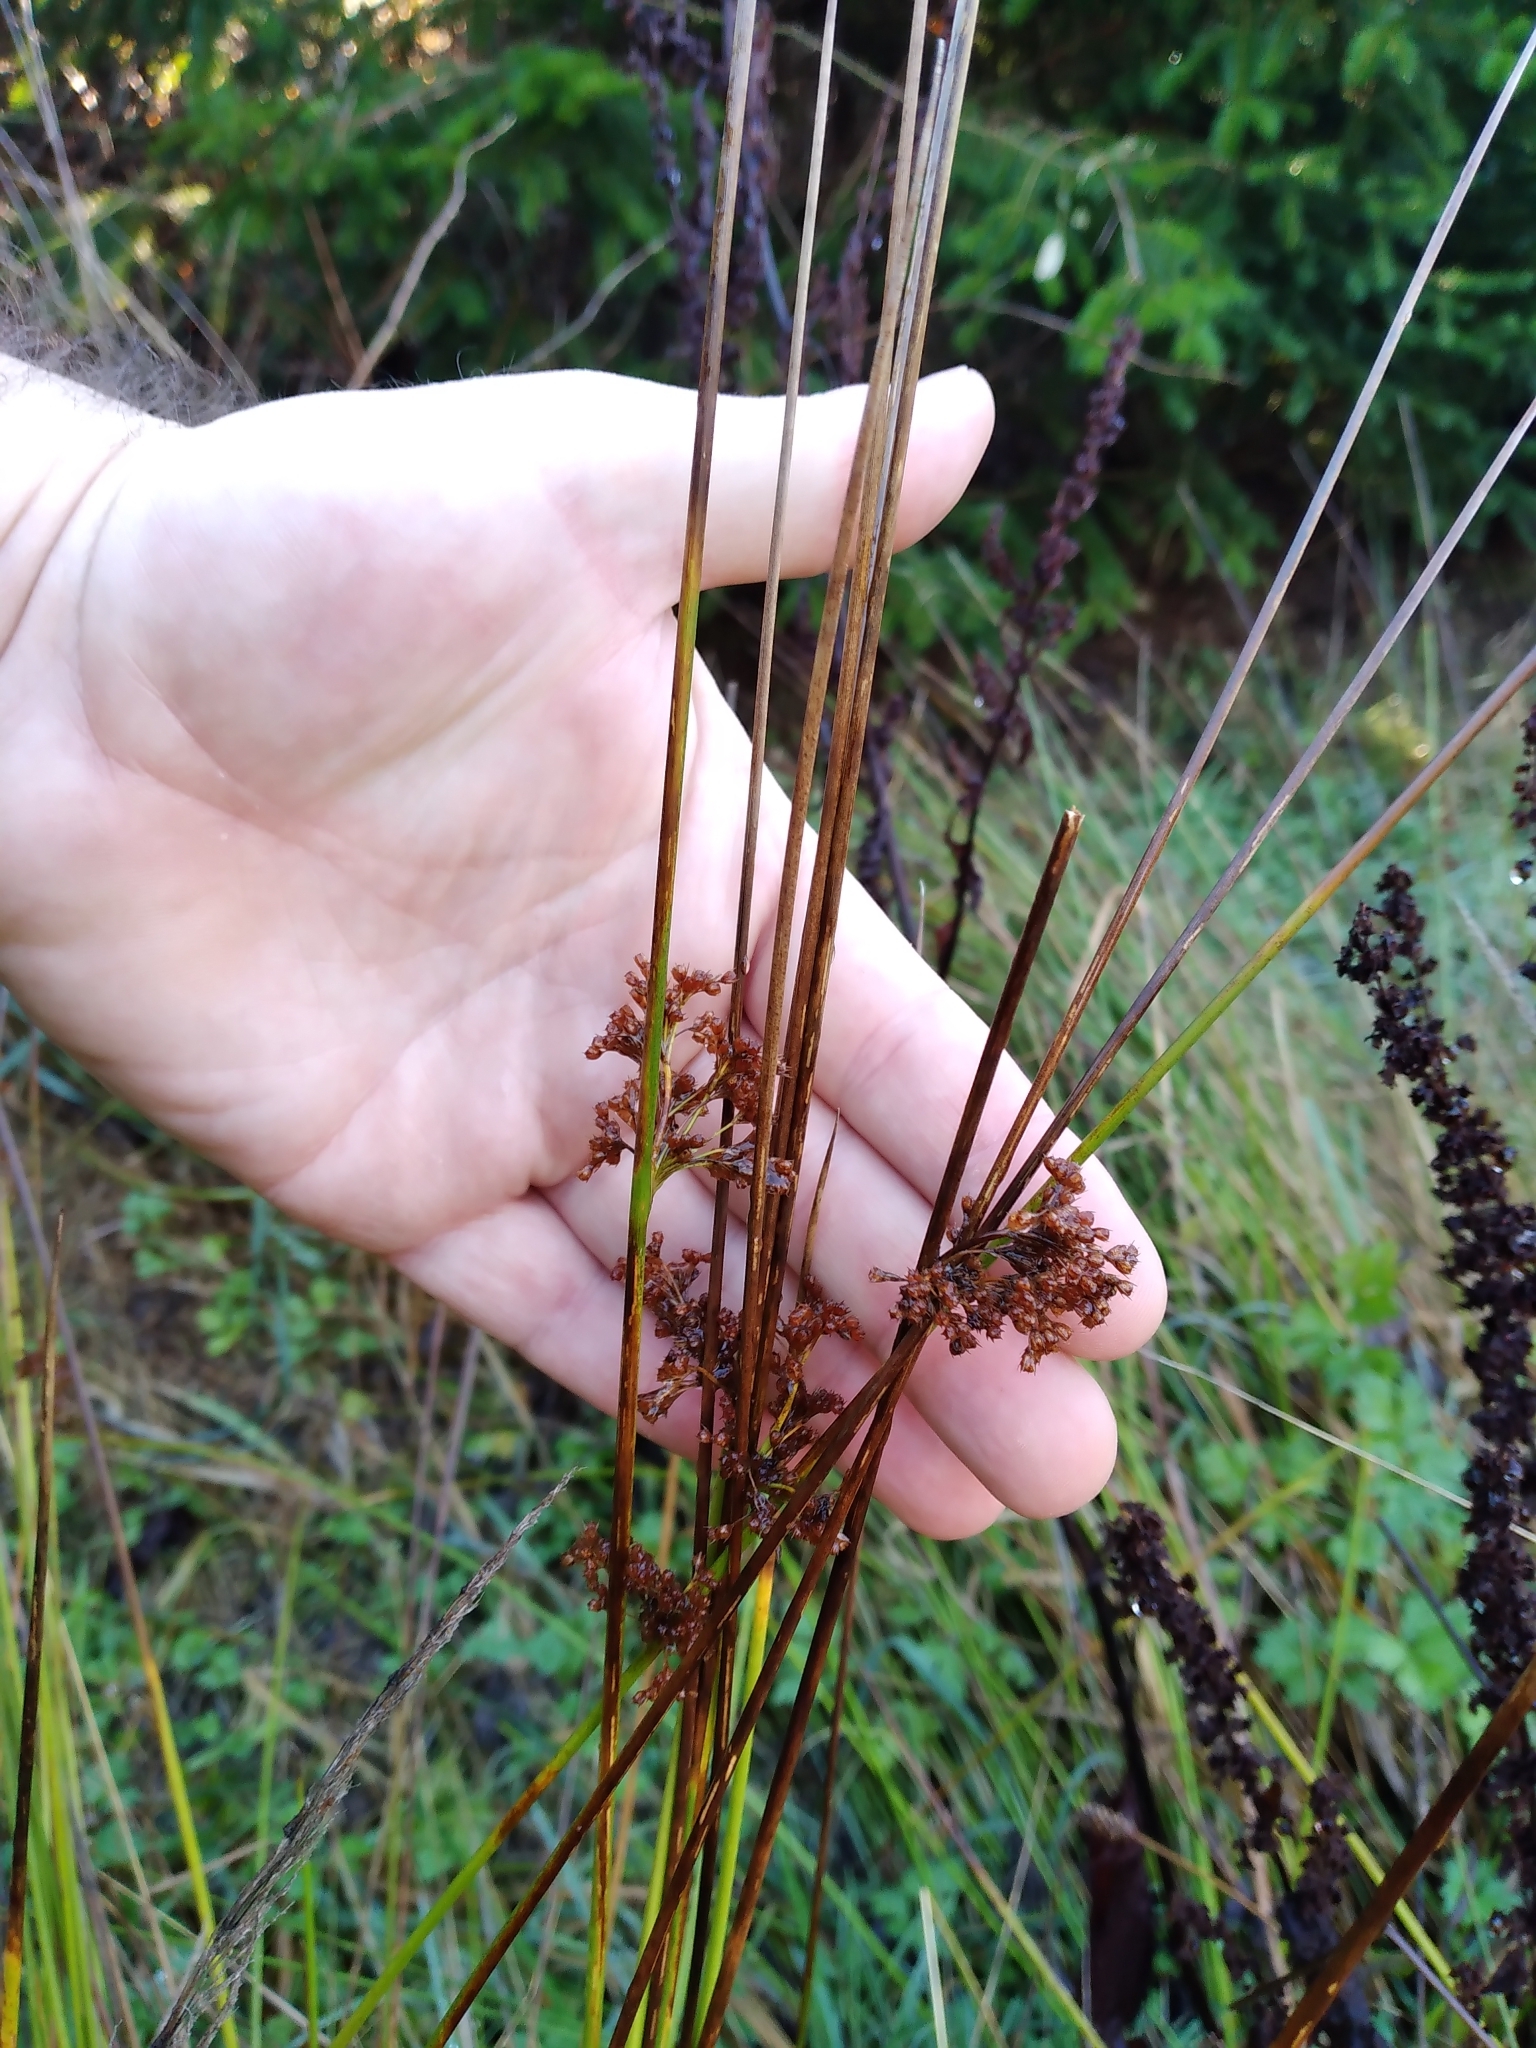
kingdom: Plantae
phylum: Tracheophyta
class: Liliopsida
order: Poales
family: Juncaceae
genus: Juncus
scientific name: Juncus effusus
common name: Soft rush
